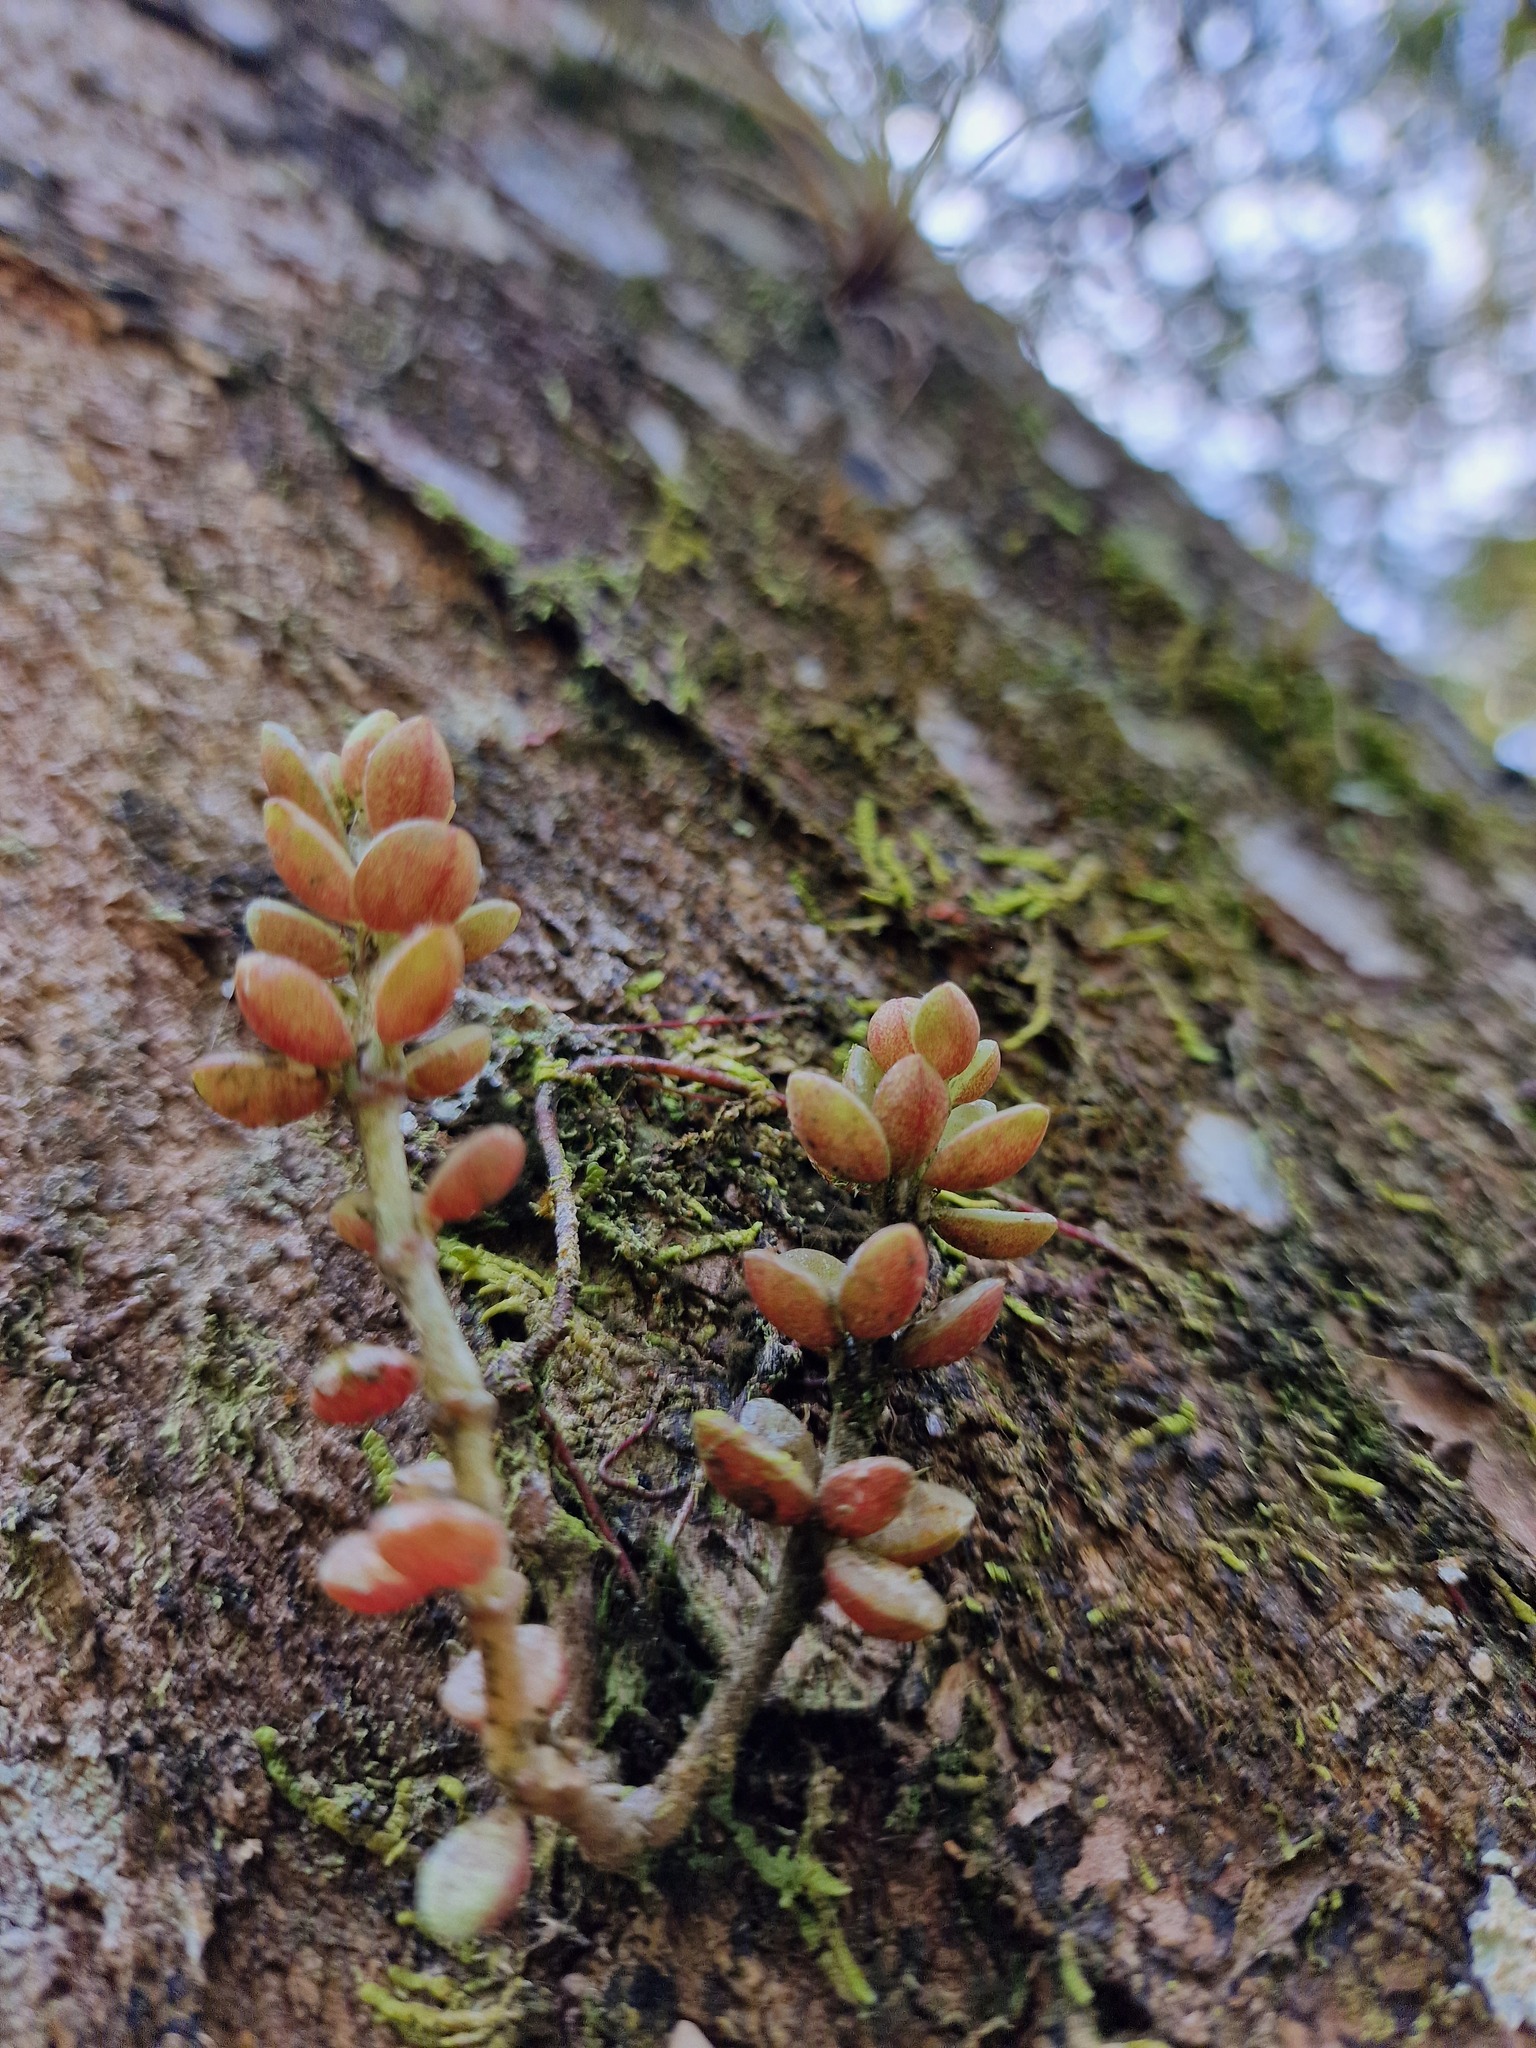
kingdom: Plantae
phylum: Tracheophyta
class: Magnoliopsida
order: Piperales
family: Piperaceae
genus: Peperomia
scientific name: Peperomia hartwegiana
